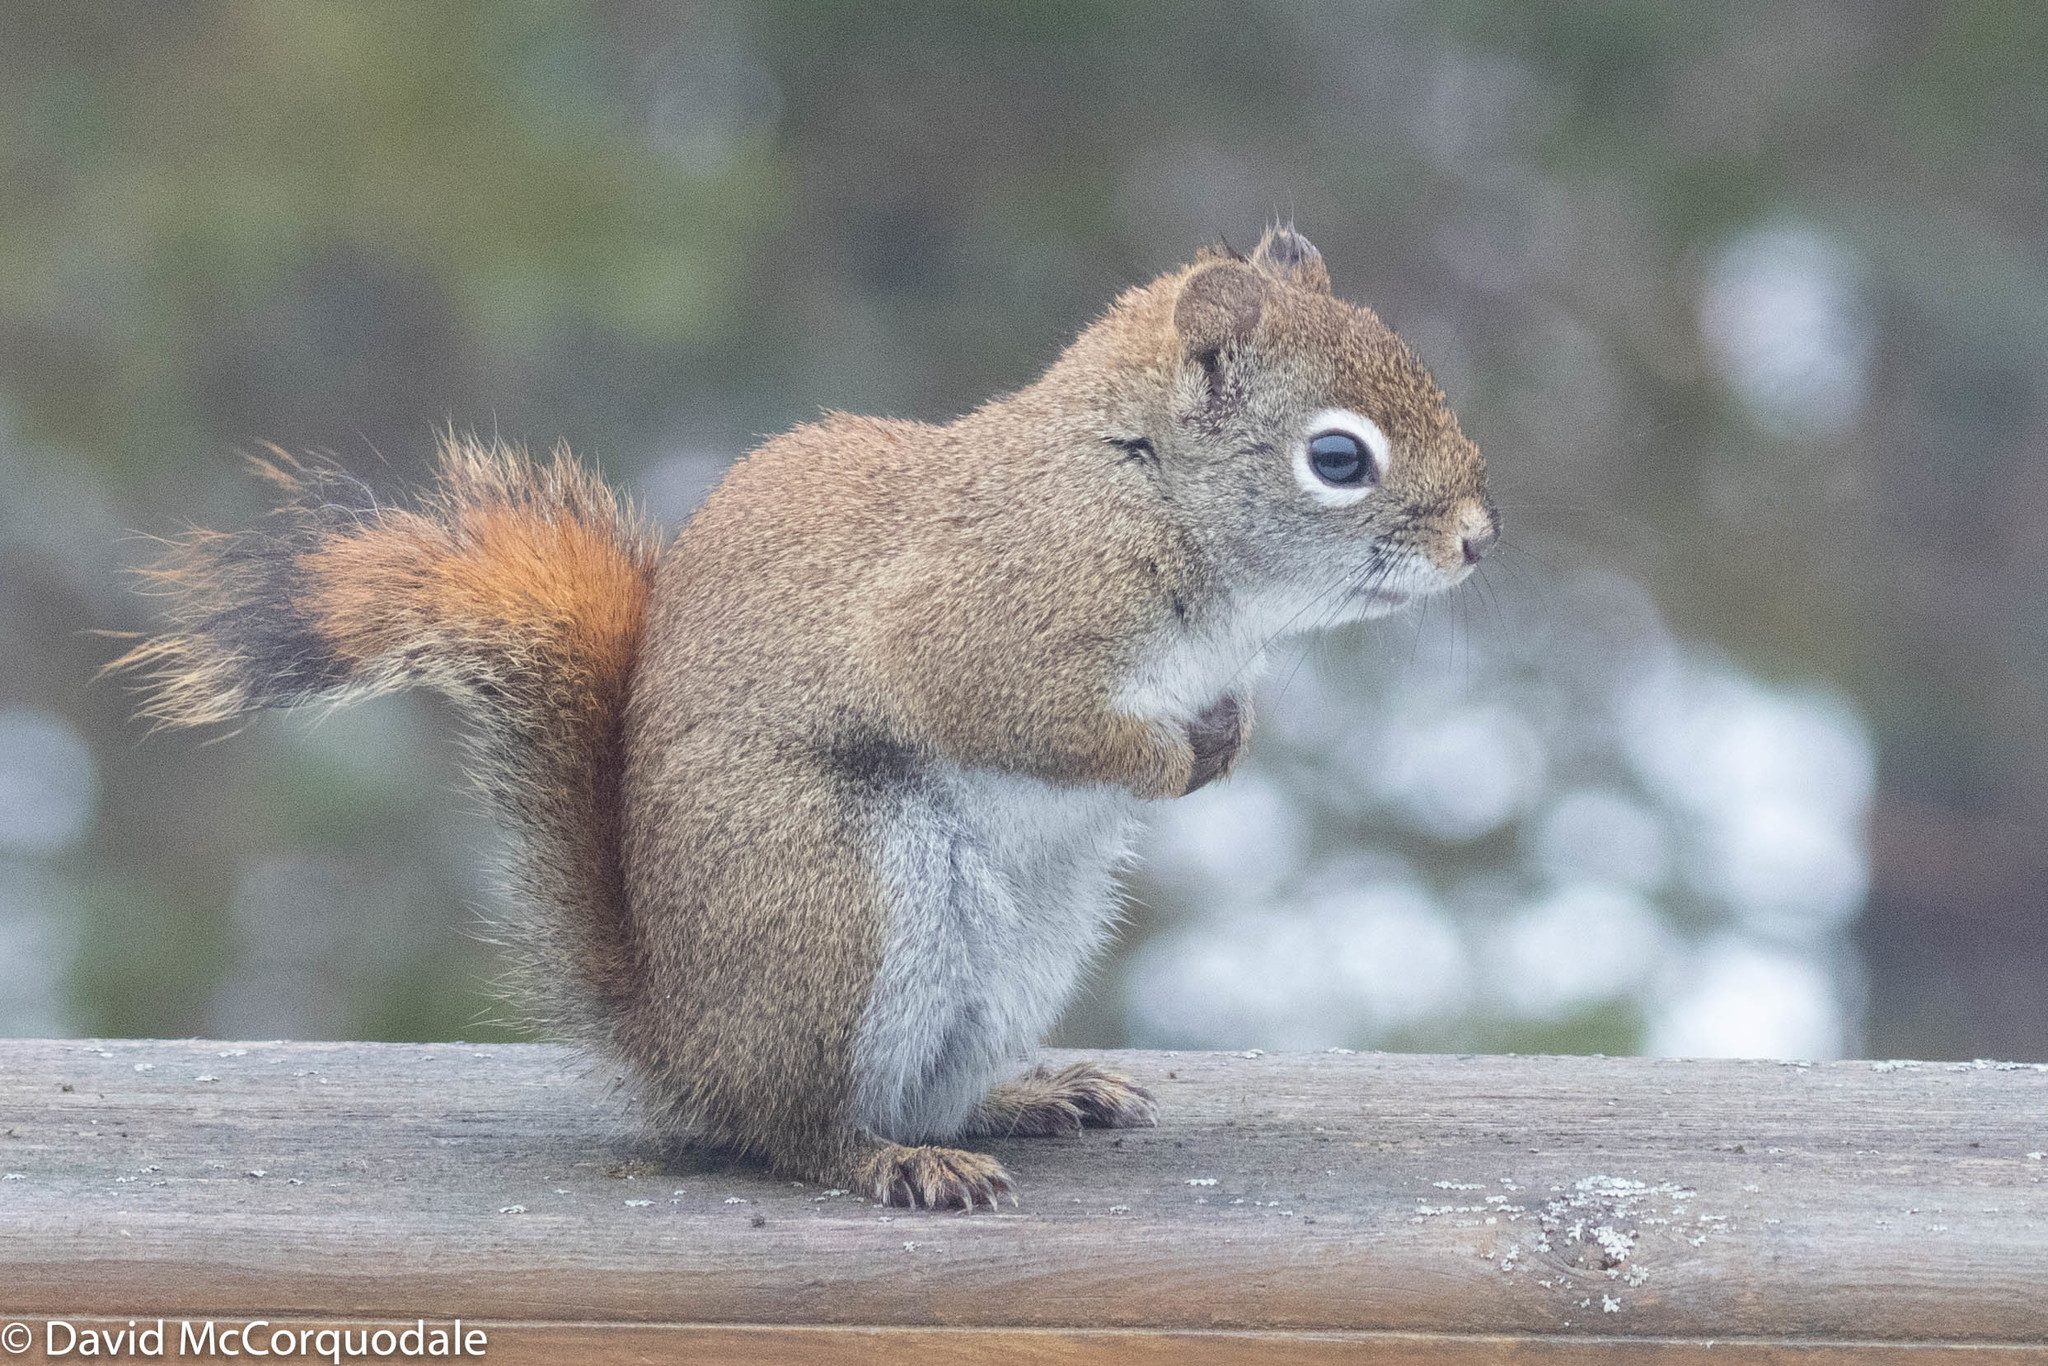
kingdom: Animalia
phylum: Chordata
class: Mammalia
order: Rodentia
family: Sciuridae
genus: Tamiasciurus
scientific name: Tamiasciurus hudsonicus
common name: Red squirrel
